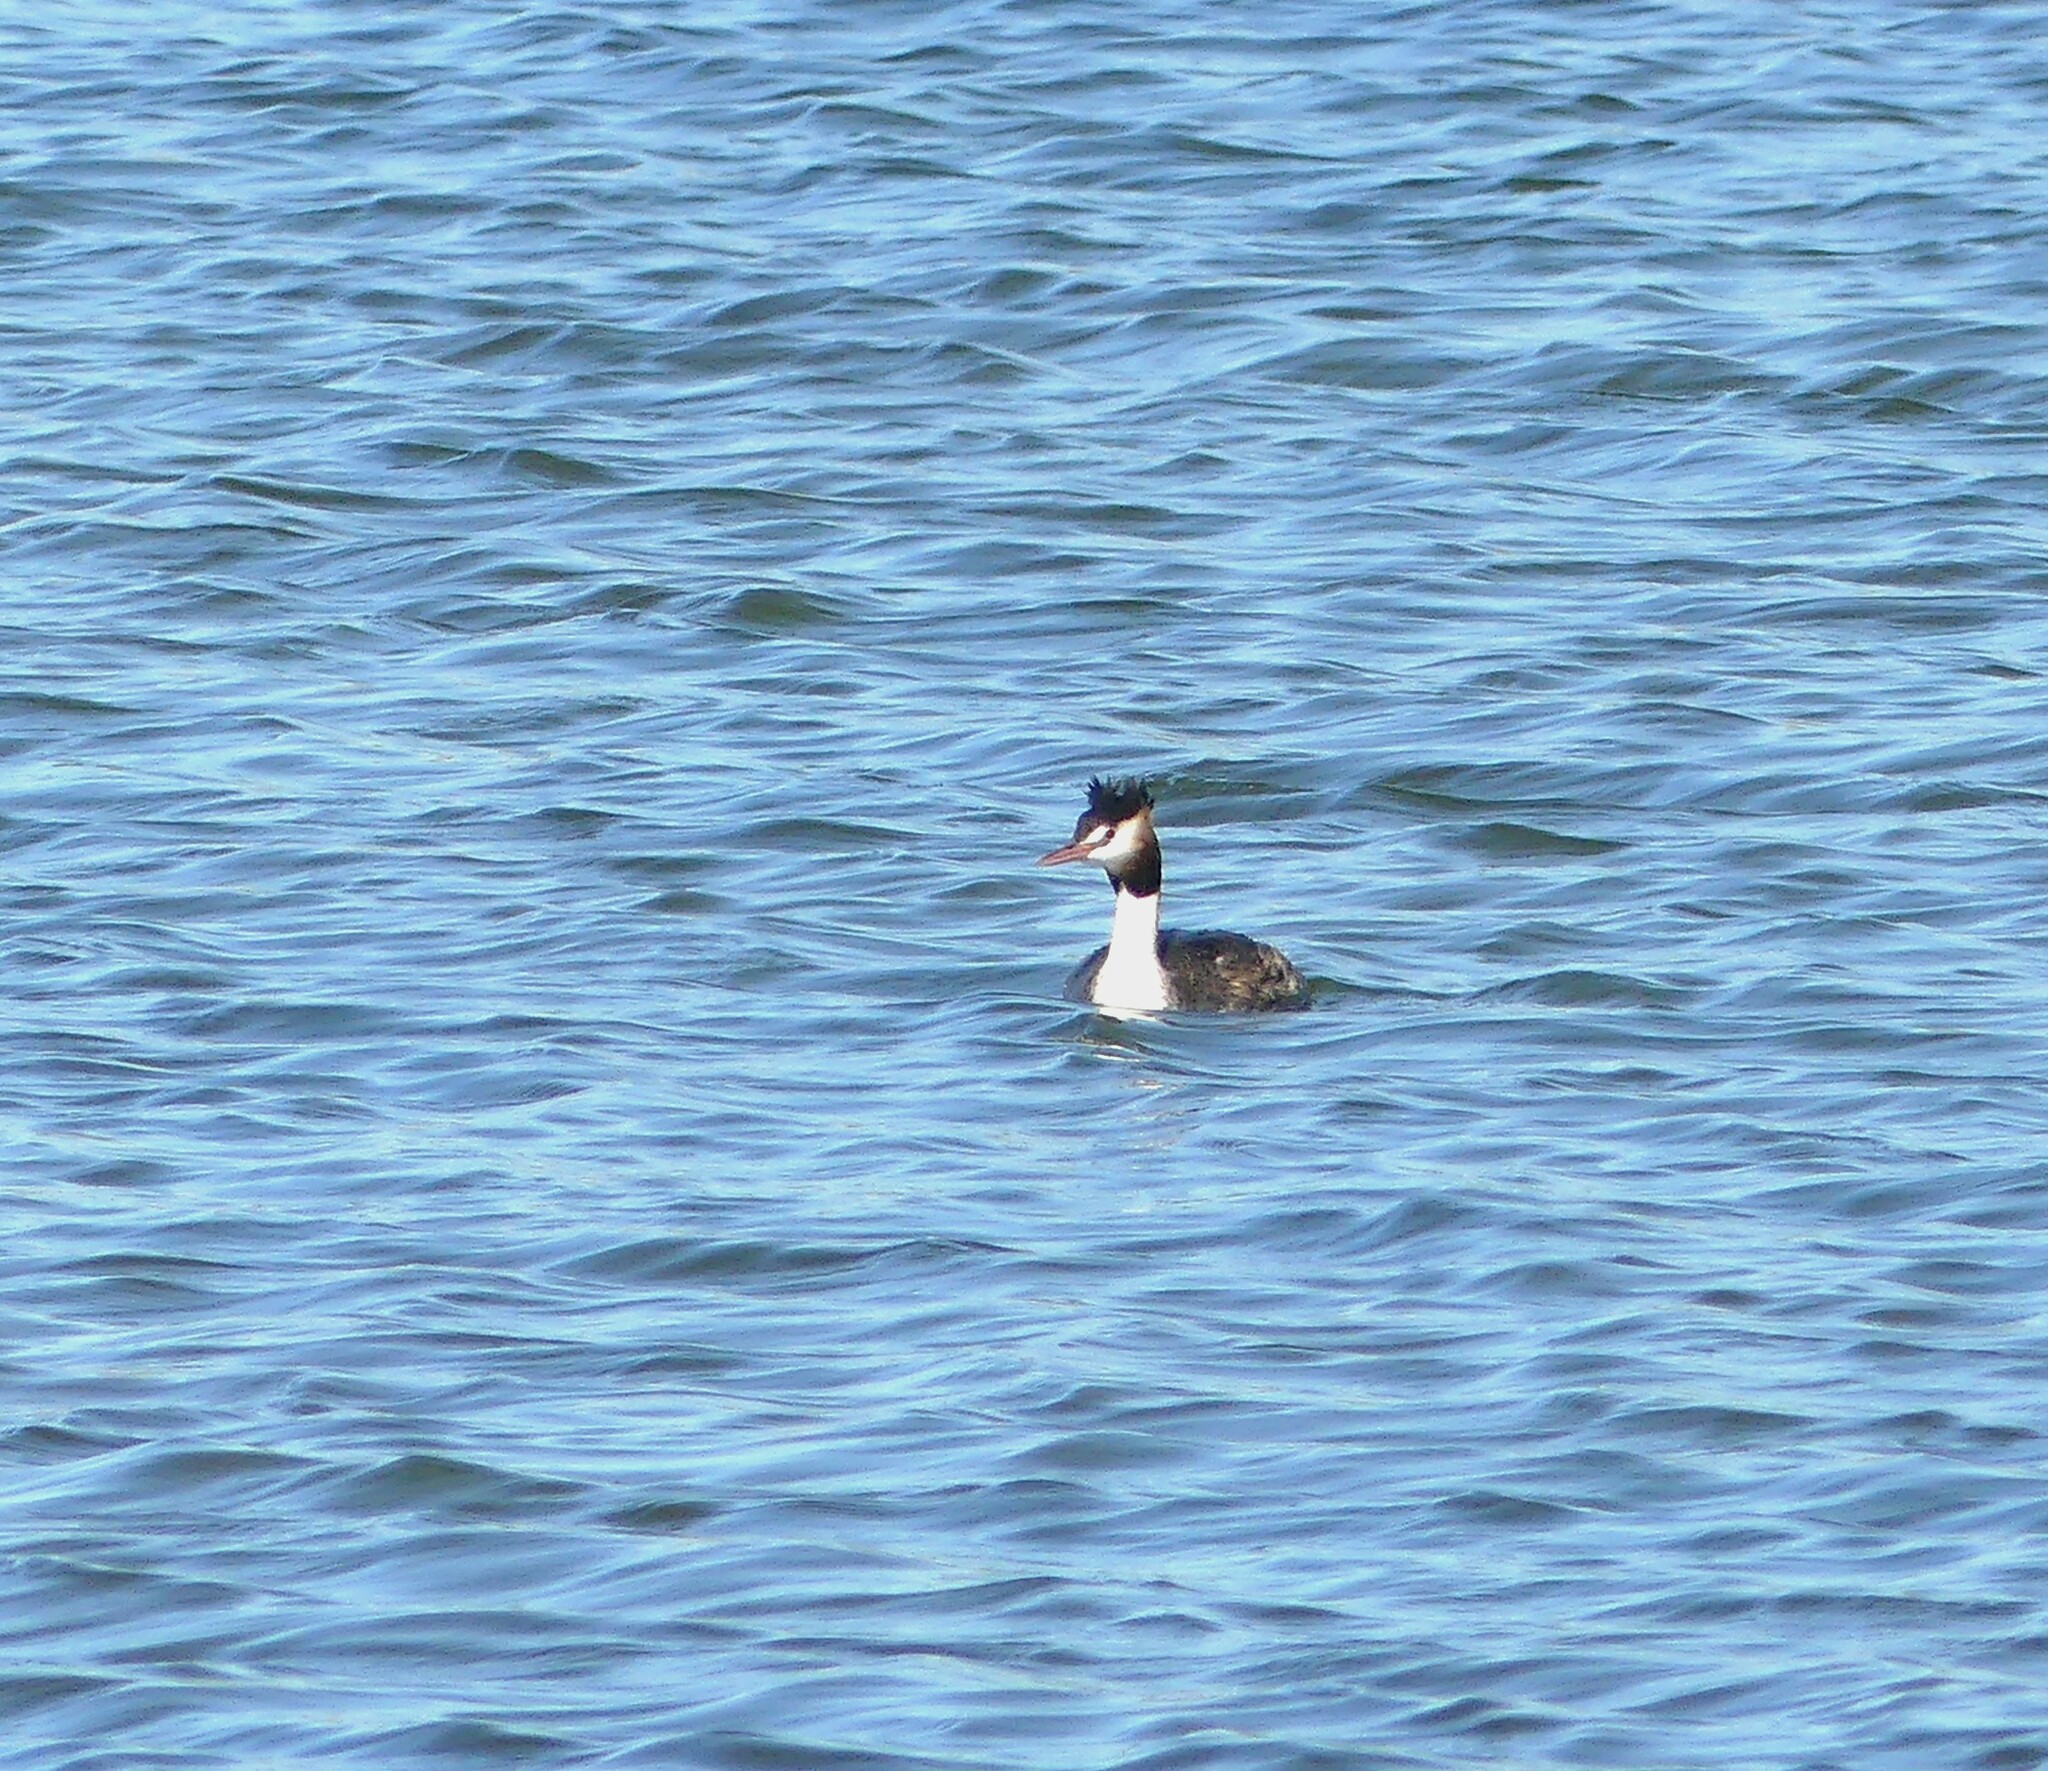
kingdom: Animalia
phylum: Chordata
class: Aves
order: Podicipediformes
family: Podicipedidae
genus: Podiceps
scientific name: Podiceps cristatus
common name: Great crested grebe
